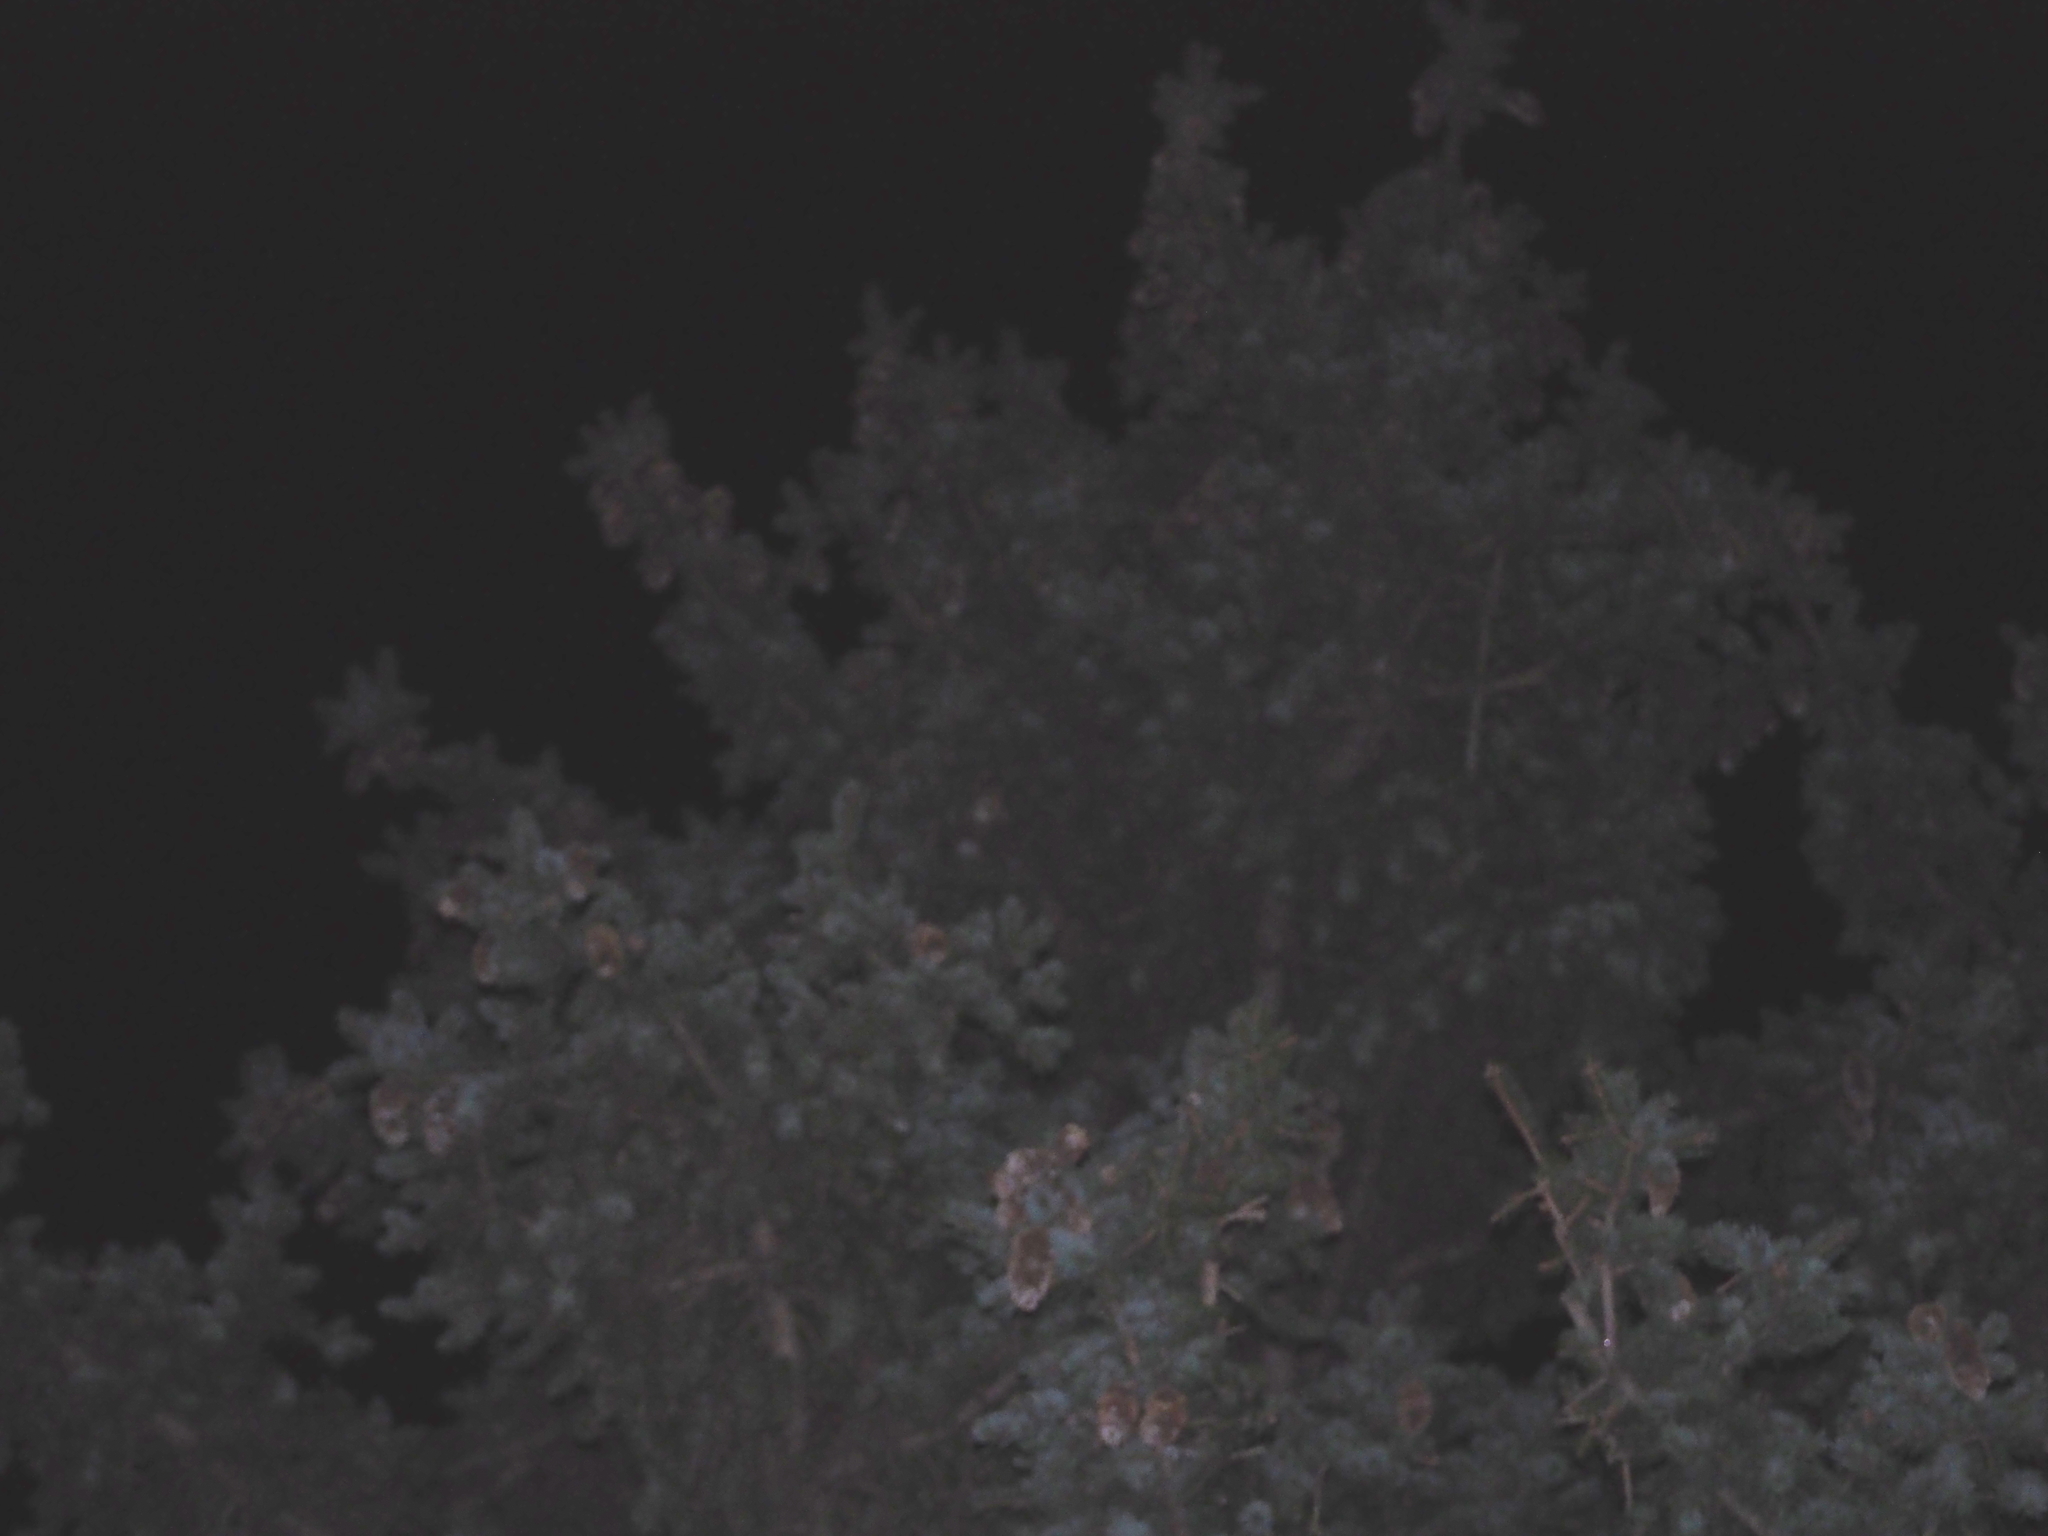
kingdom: Animalia
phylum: Chordata
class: Aves
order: Strigiformes
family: Strigidae
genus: Asio
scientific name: Asio otus
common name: Long-eared owl
